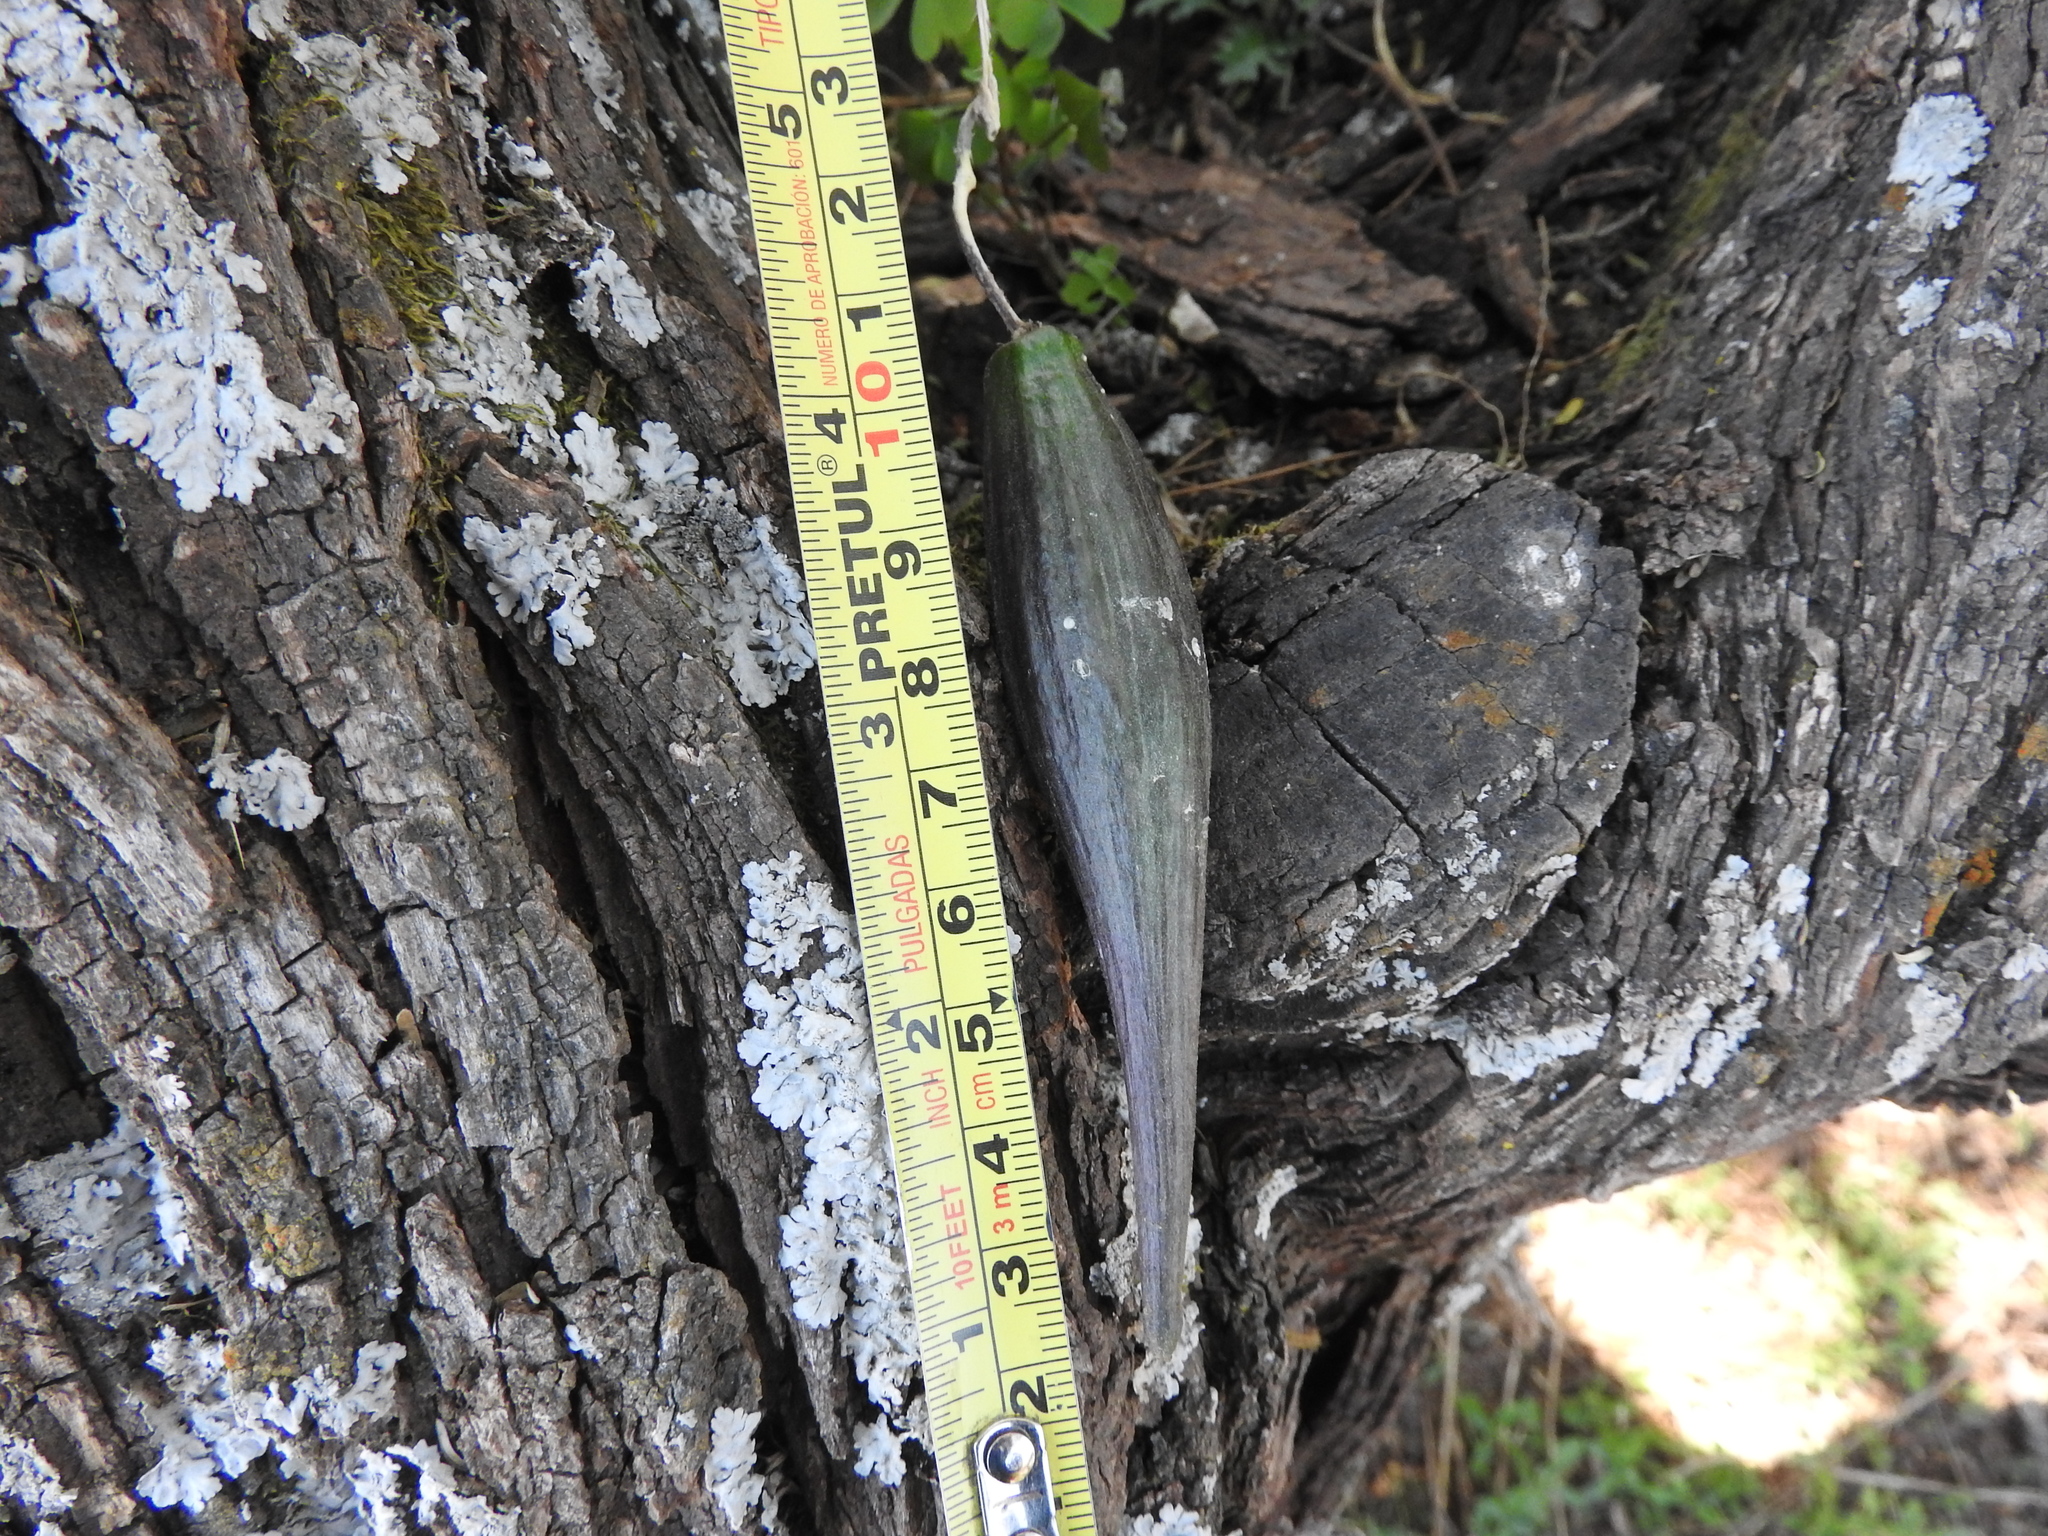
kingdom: Plantae
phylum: Tracheophyta
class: Magnoliopsida
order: Gentianales
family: Apocynaceae
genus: Funastrum
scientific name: Funastrum elegans
